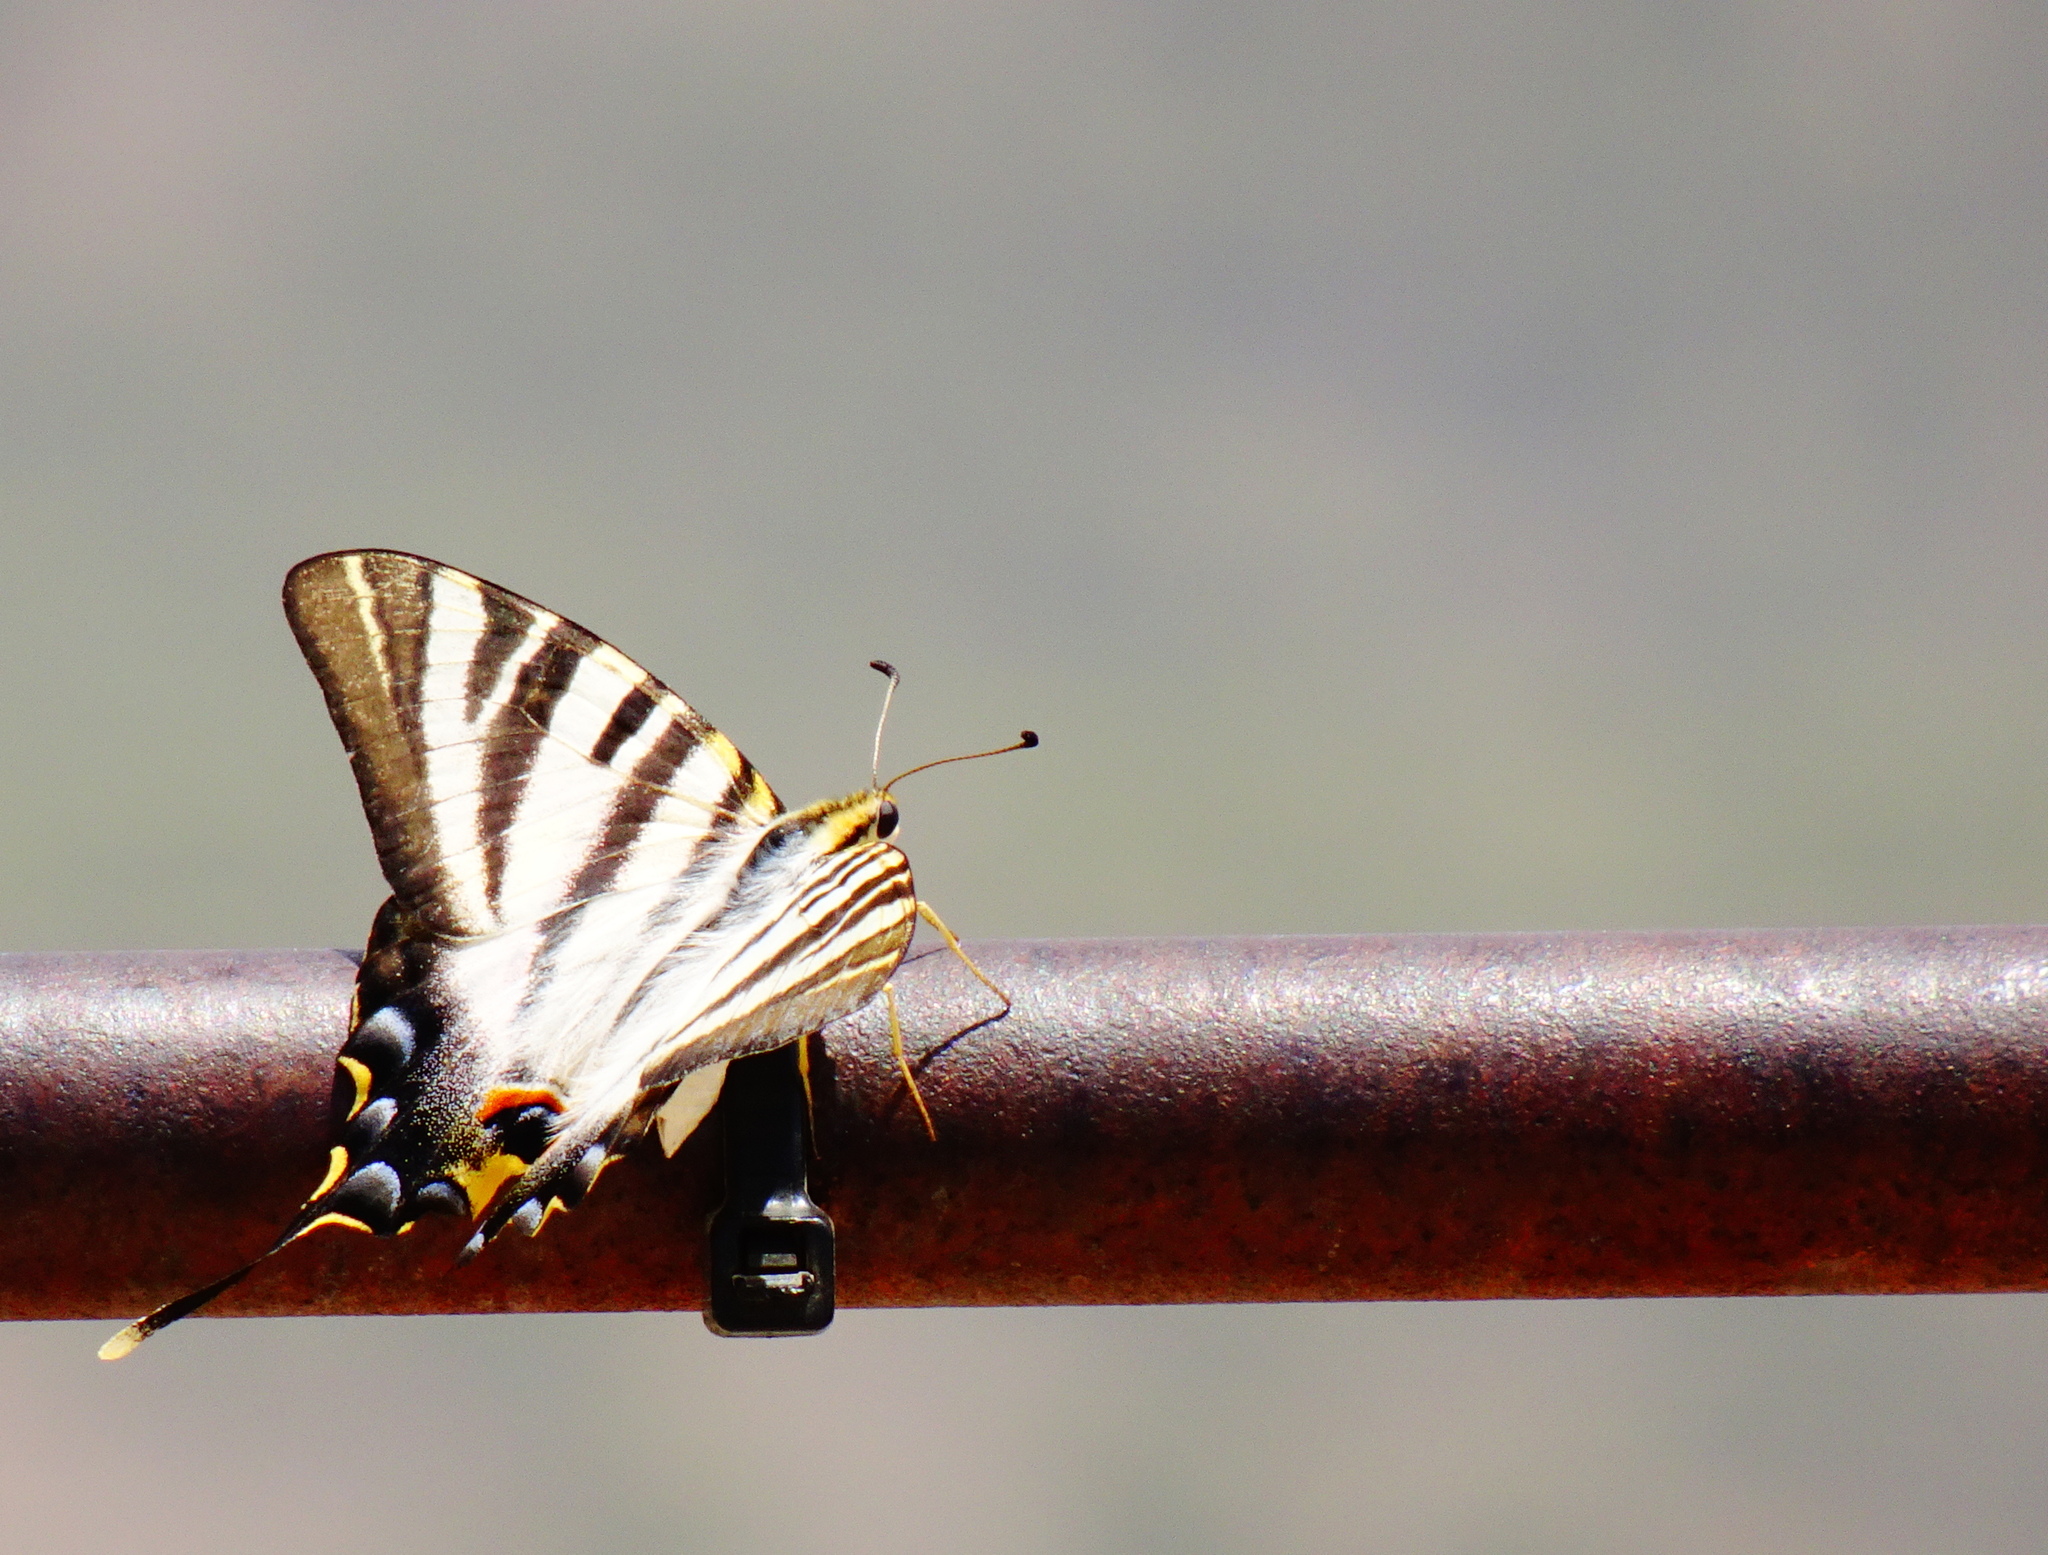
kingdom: Animalia
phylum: Arthropoda
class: Insecta
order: Lepidoptera
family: Papilionidae
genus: Iphiclides
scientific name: Iphiclides feisthamelii
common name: Iberian scarce swallowtail
